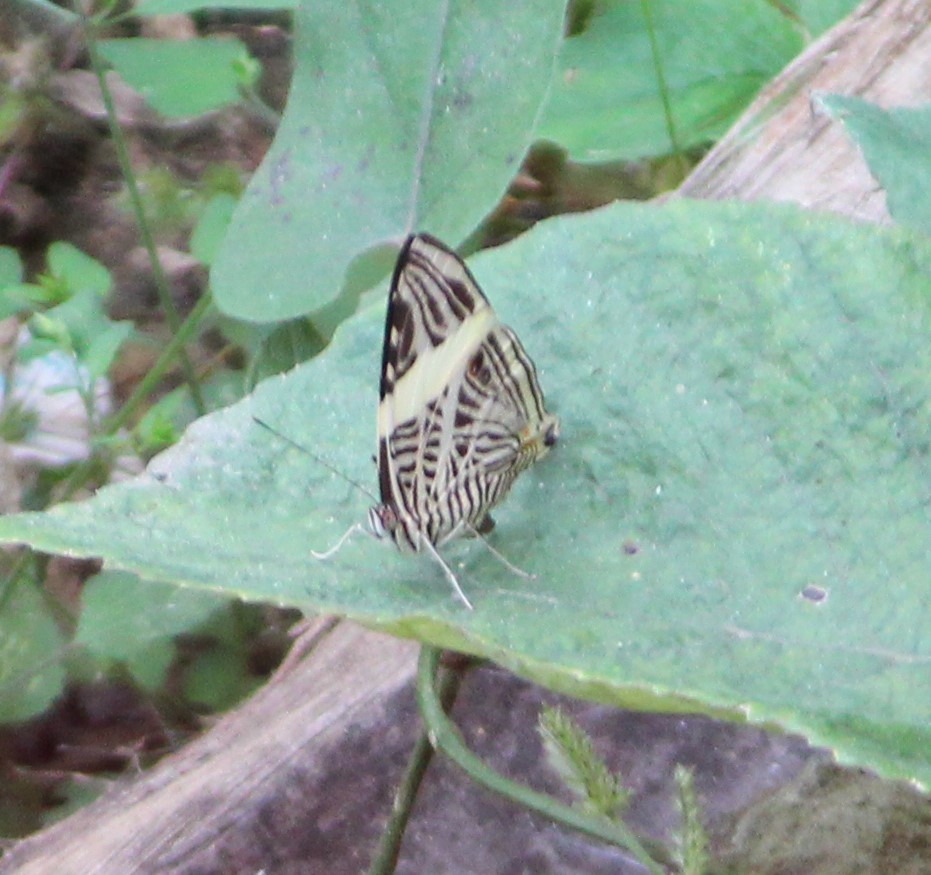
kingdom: Animalia
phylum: Arthropoda
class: Insecta
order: Lepidoptera
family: Nymphalidae
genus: Colobura
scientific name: Colobura dirce
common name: Dirce beauty
